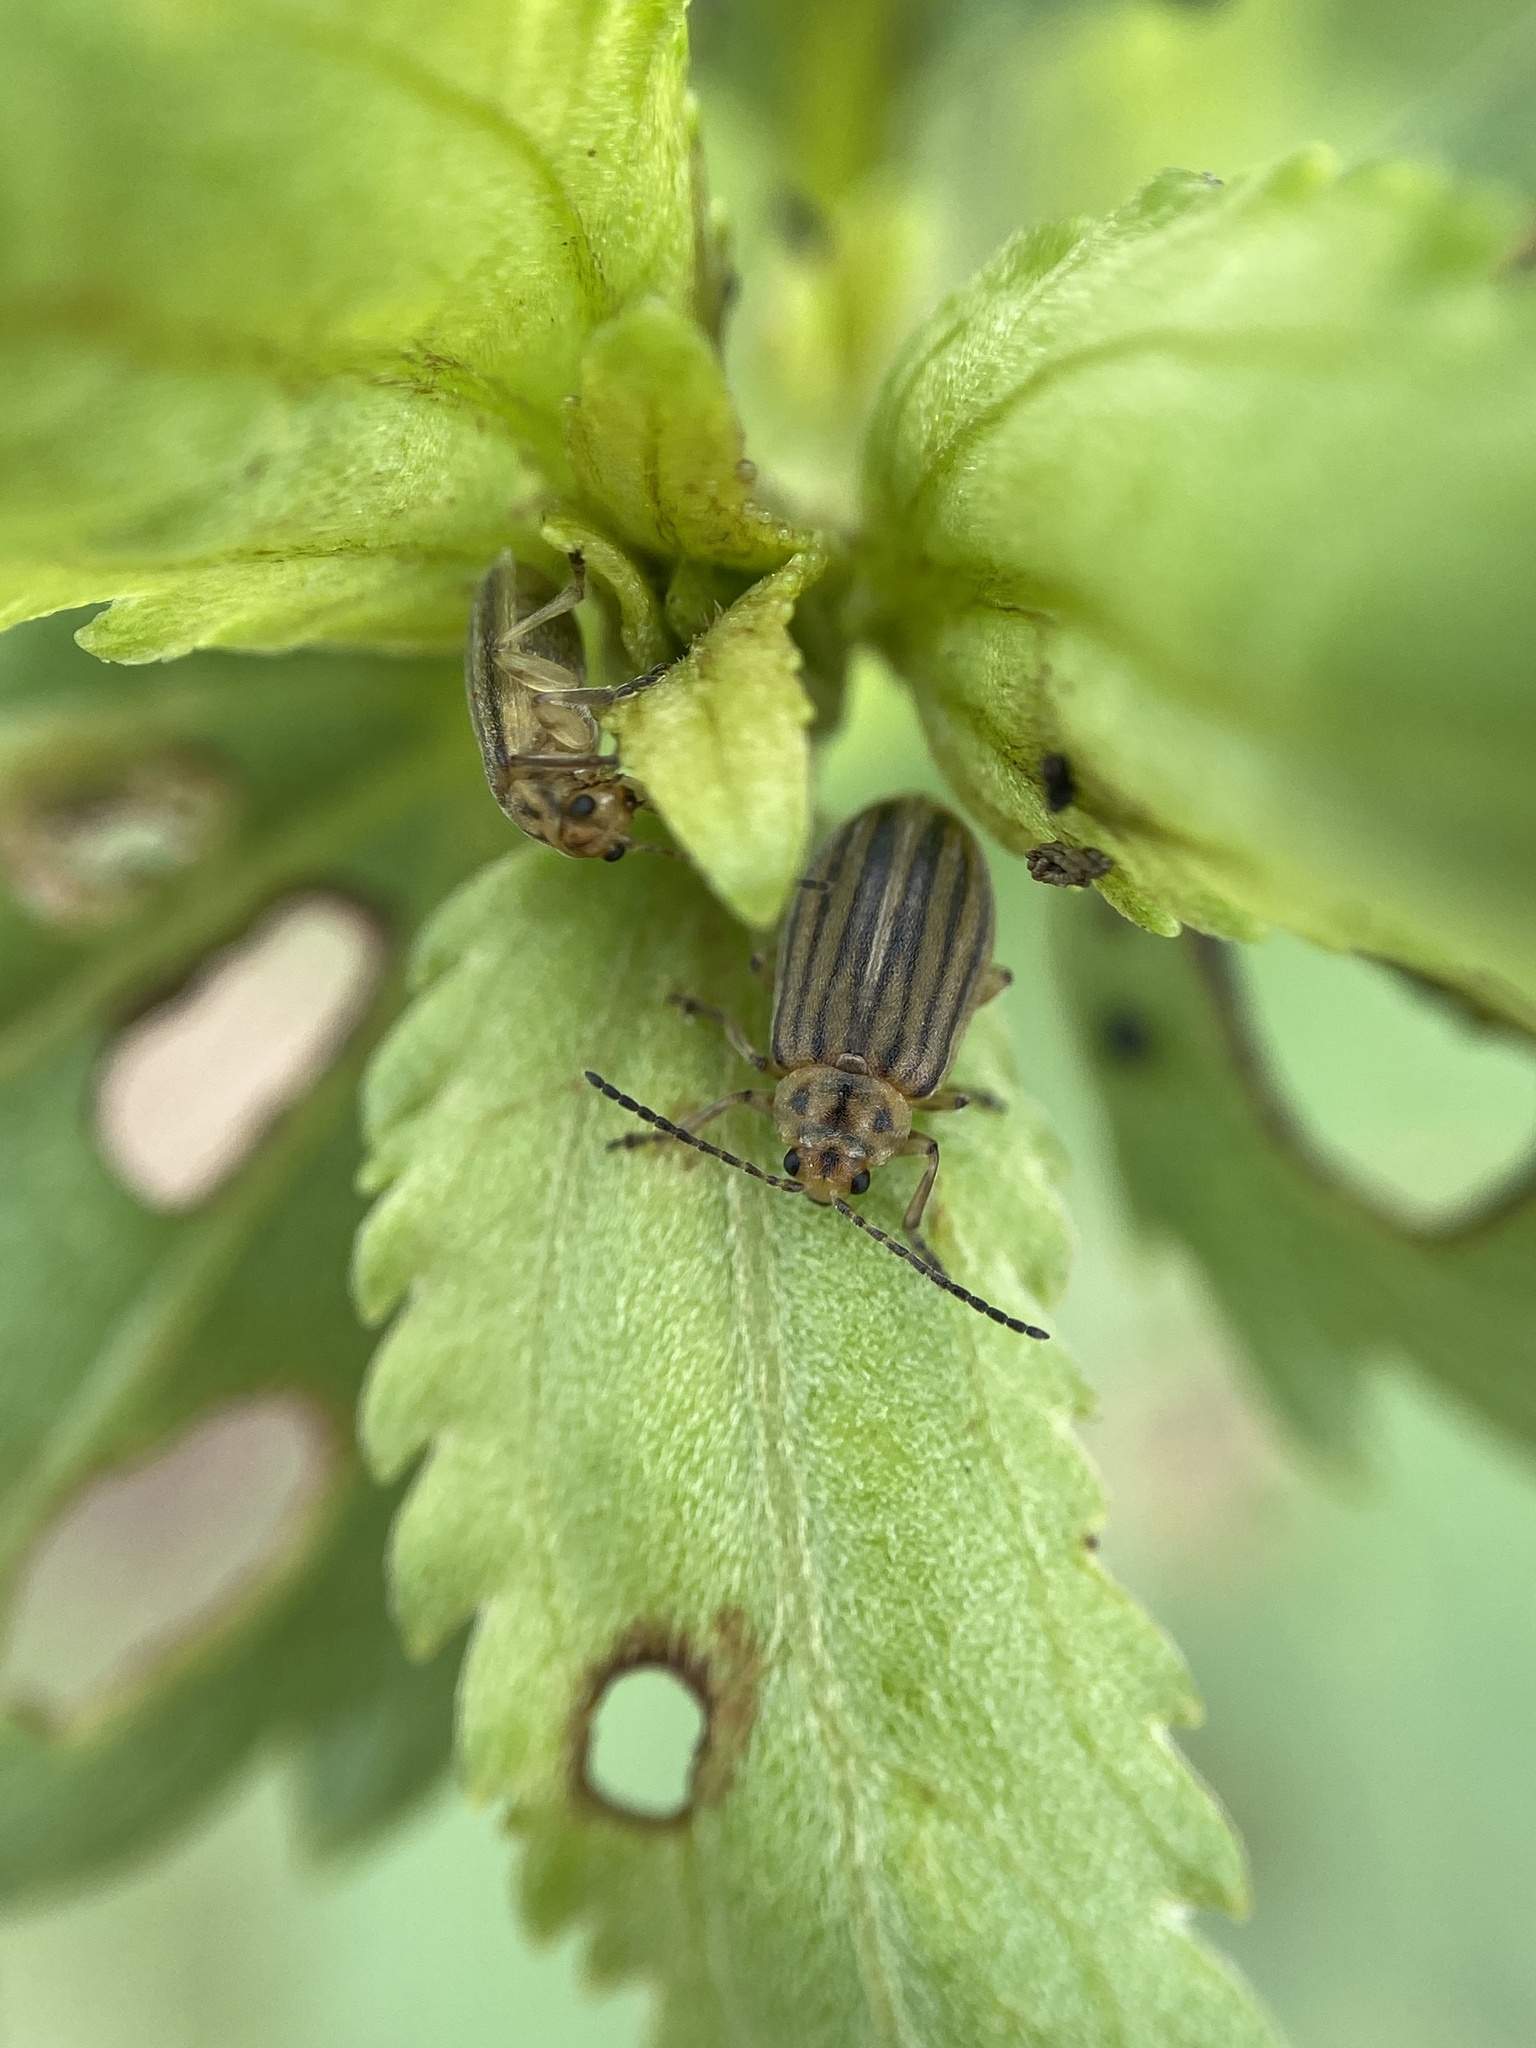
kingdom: Animalia
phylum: Arthropoda
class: Insecta
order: Coleoptera
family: Chrysomelidae
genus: Ophraella
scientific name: Ophraella notulata
